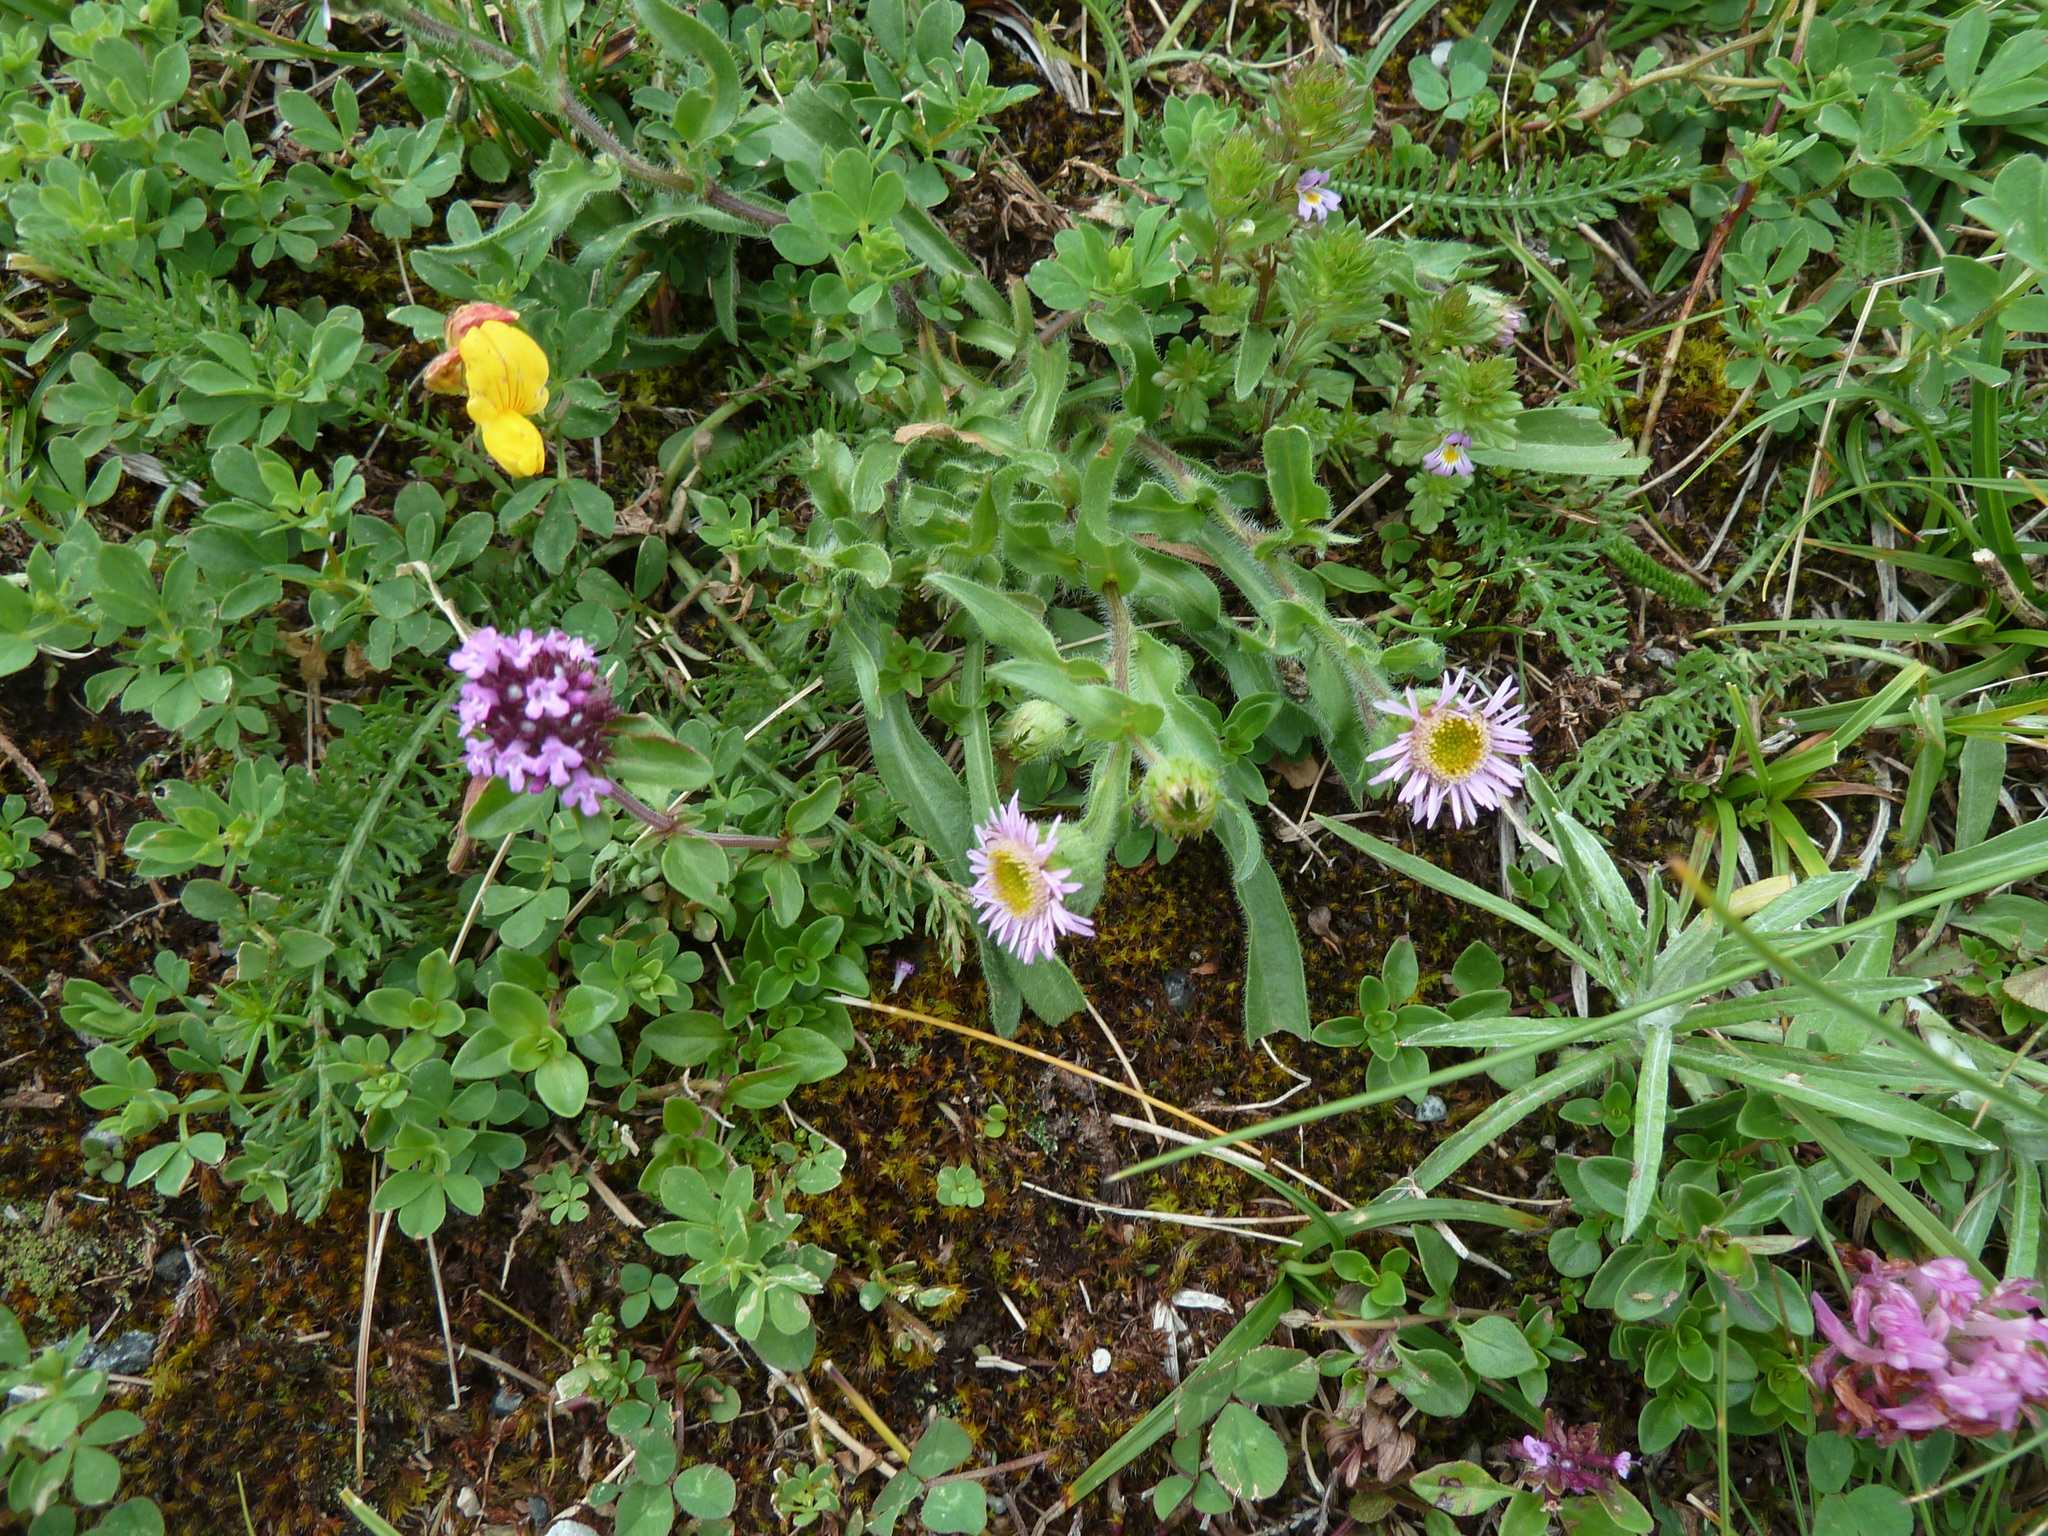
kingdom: Plantae
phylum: Tracheophyta
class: Magnoliopsida
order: Asterales
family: Asteraceae
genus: Erigeron
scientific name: Erigeron alpinus
